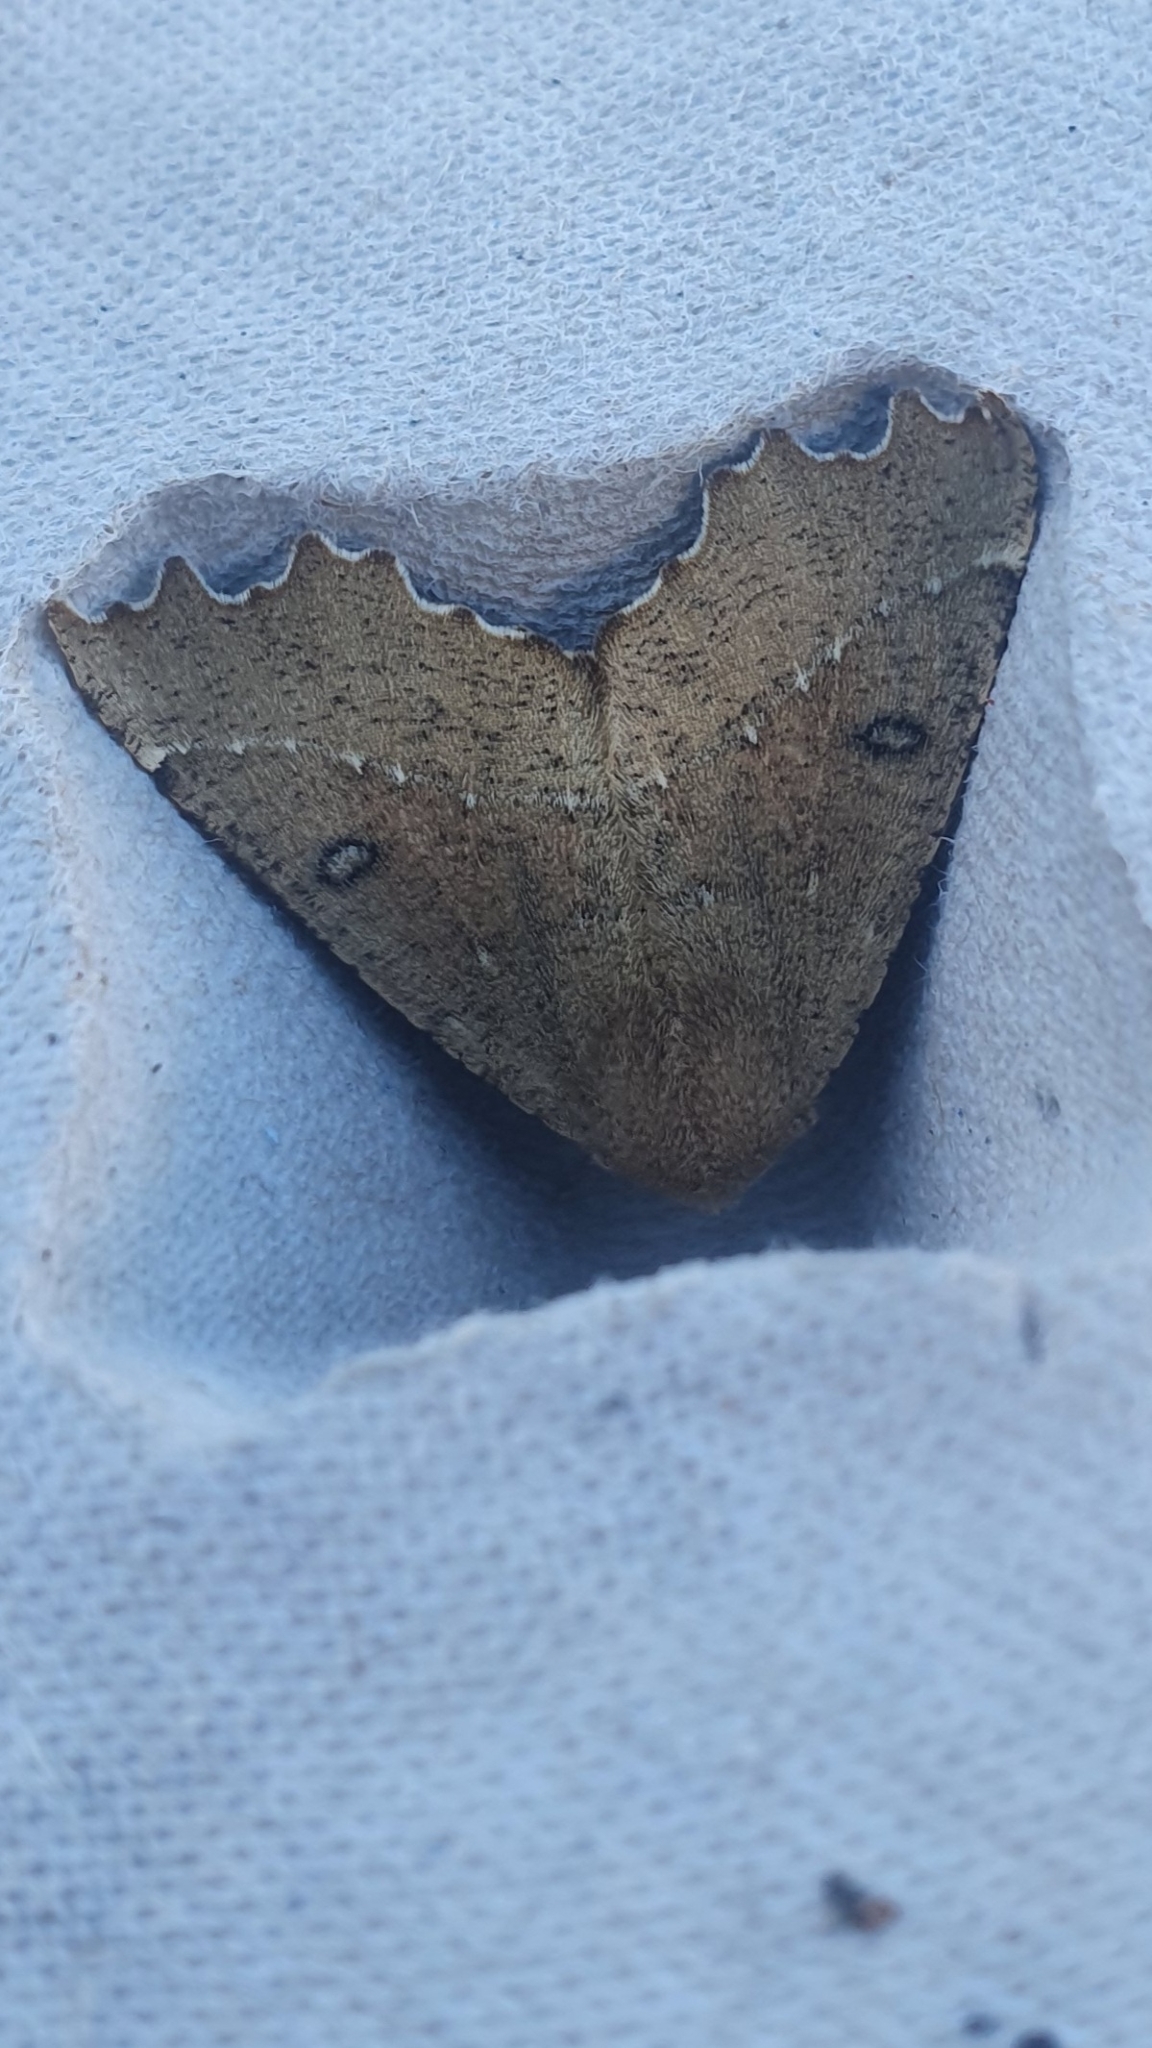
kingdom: Animalia
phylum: Arthropoda
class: Insecta
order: Lepidoptera
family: Geometridae
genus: Odontopera
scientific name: Odontopera bidentata
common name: Scalloped hazel
